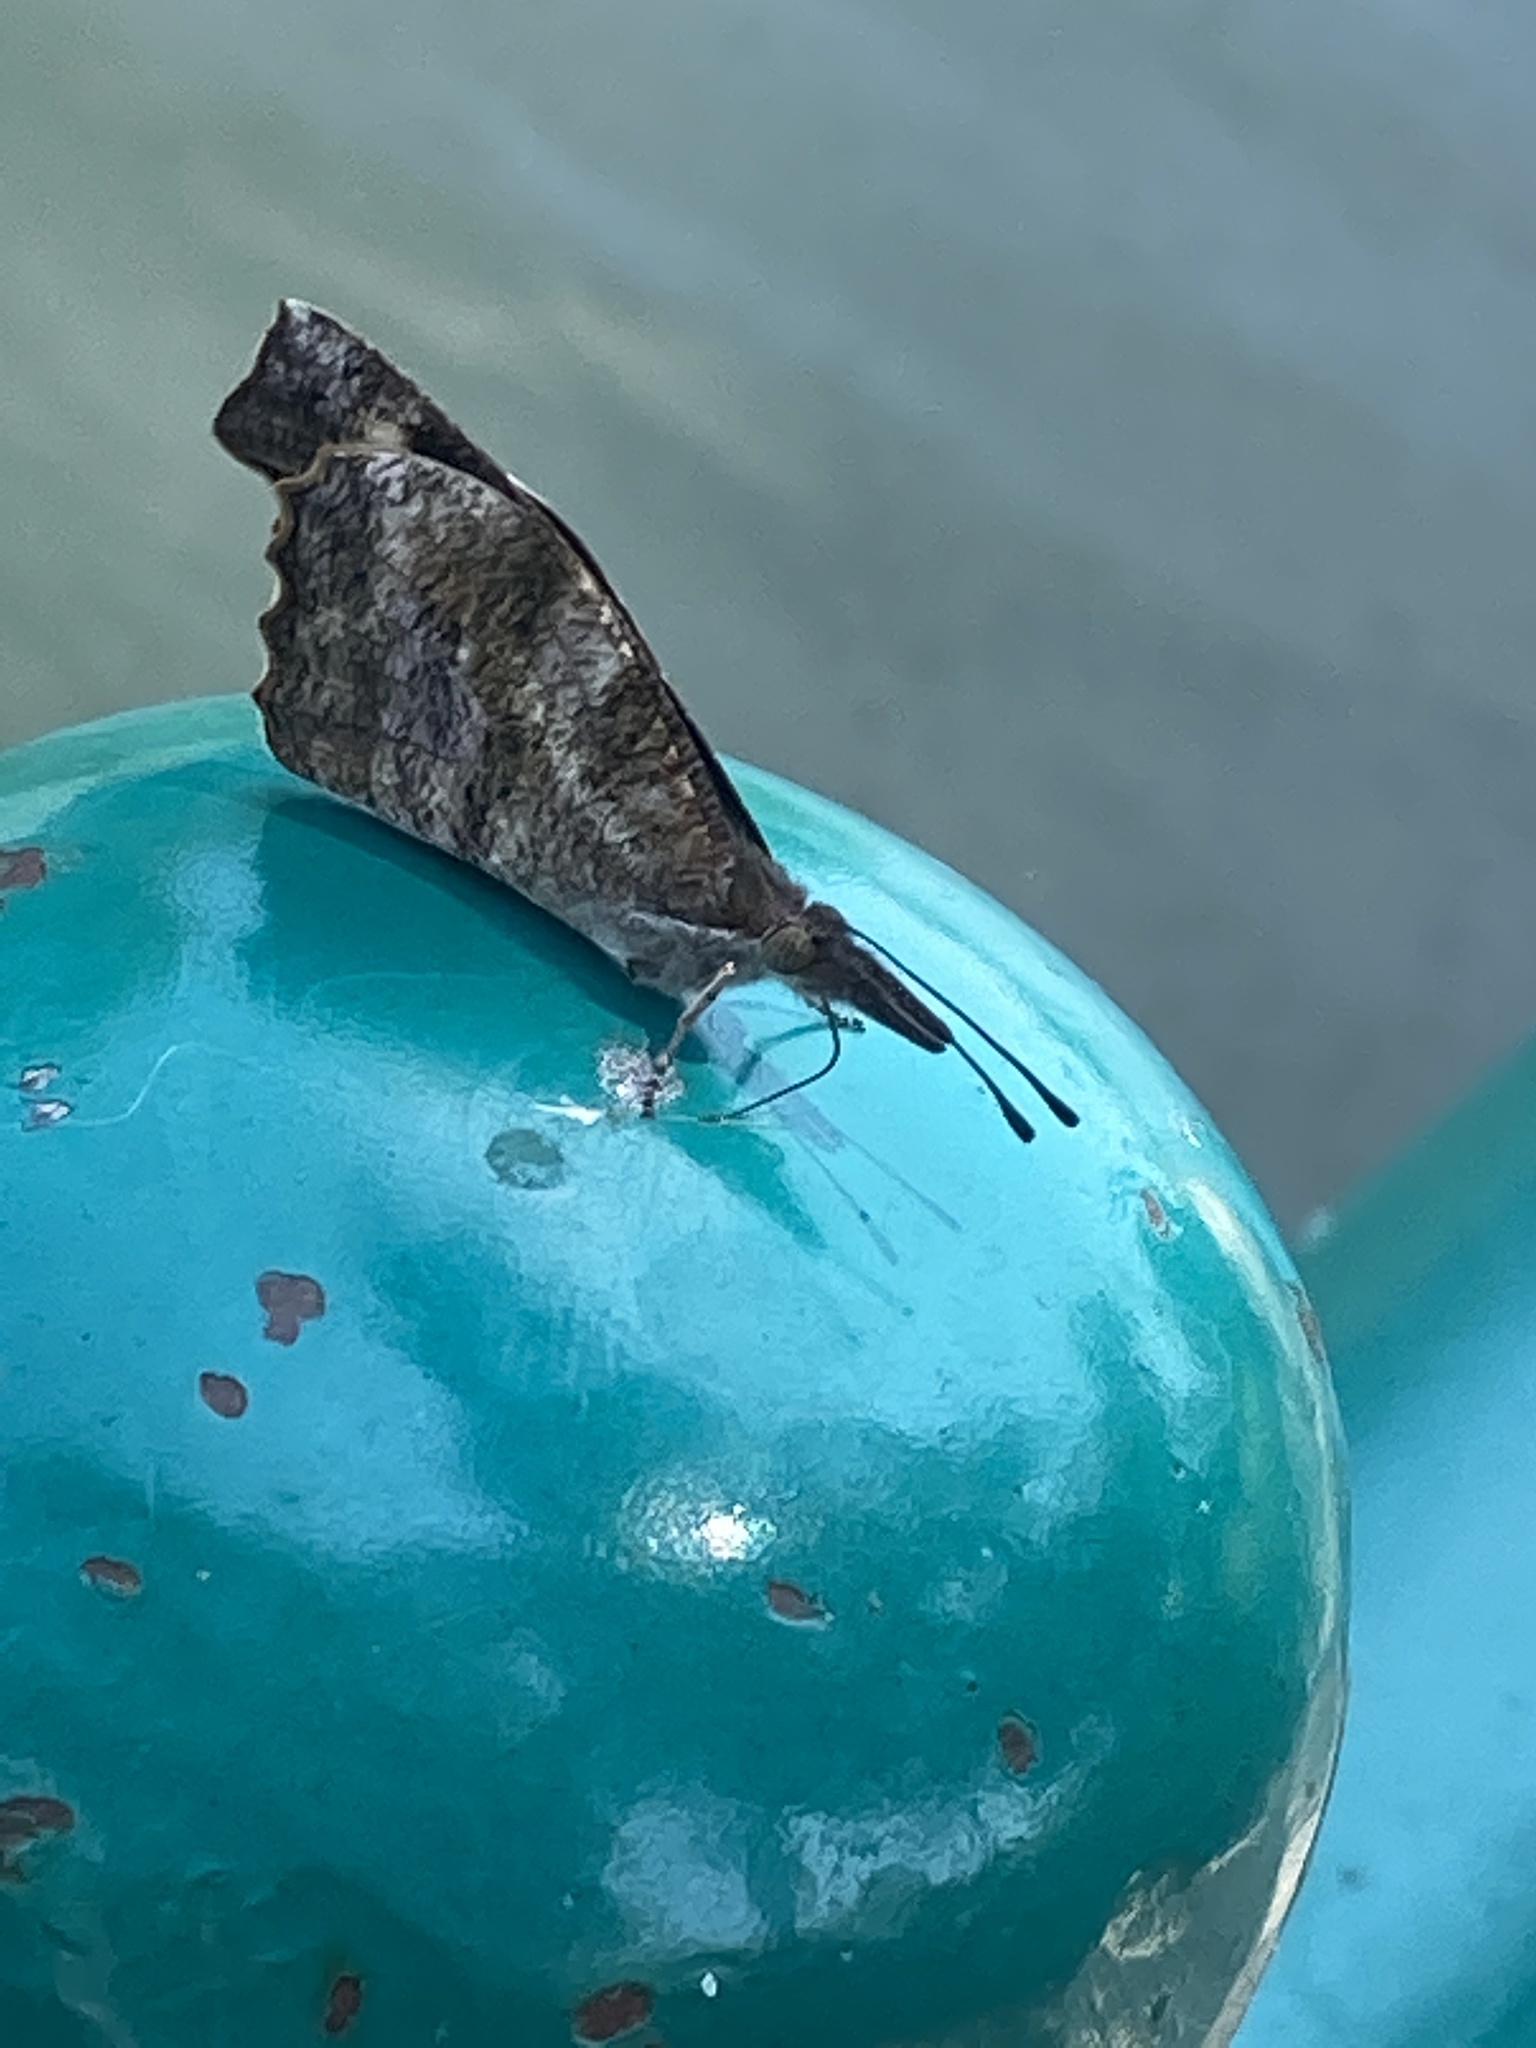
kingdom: Animalia
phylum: Arthropoda
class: Insecta
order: Lepidoptera
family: Nymphalidae
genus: Libytheana
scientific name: Libytheana carinenta
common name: American snout
